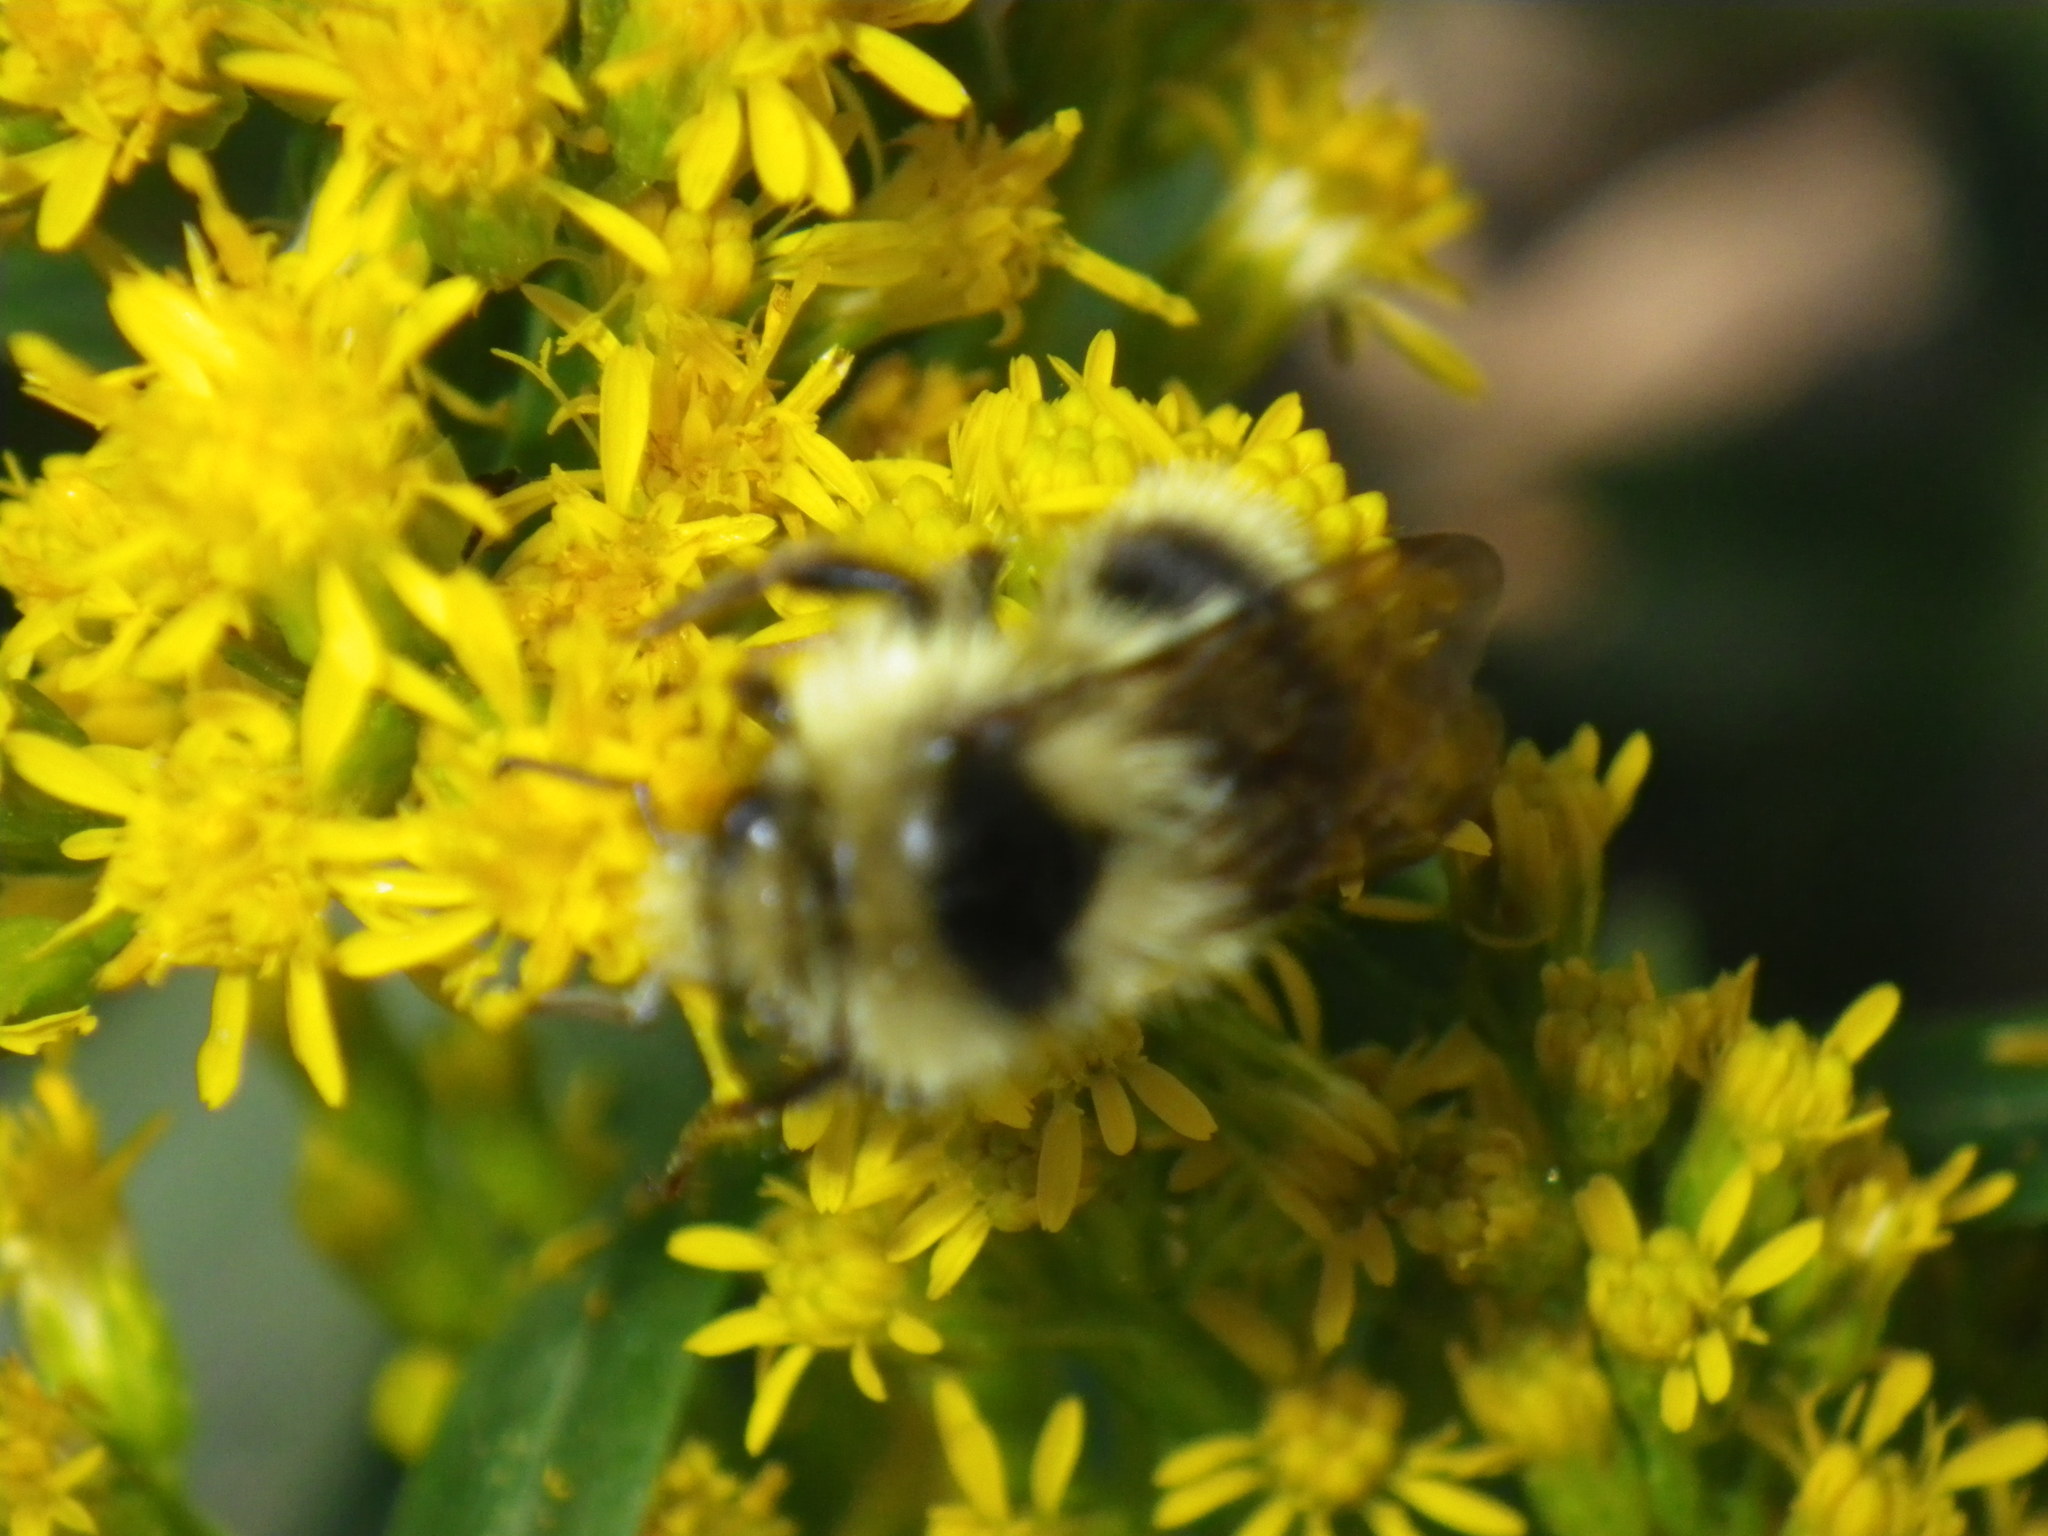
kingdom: Animalia
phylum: Arthropoda
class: Insecta
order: Hymenoptera
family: Apidae
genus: Pyrobombus
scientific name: Pyrobombus
